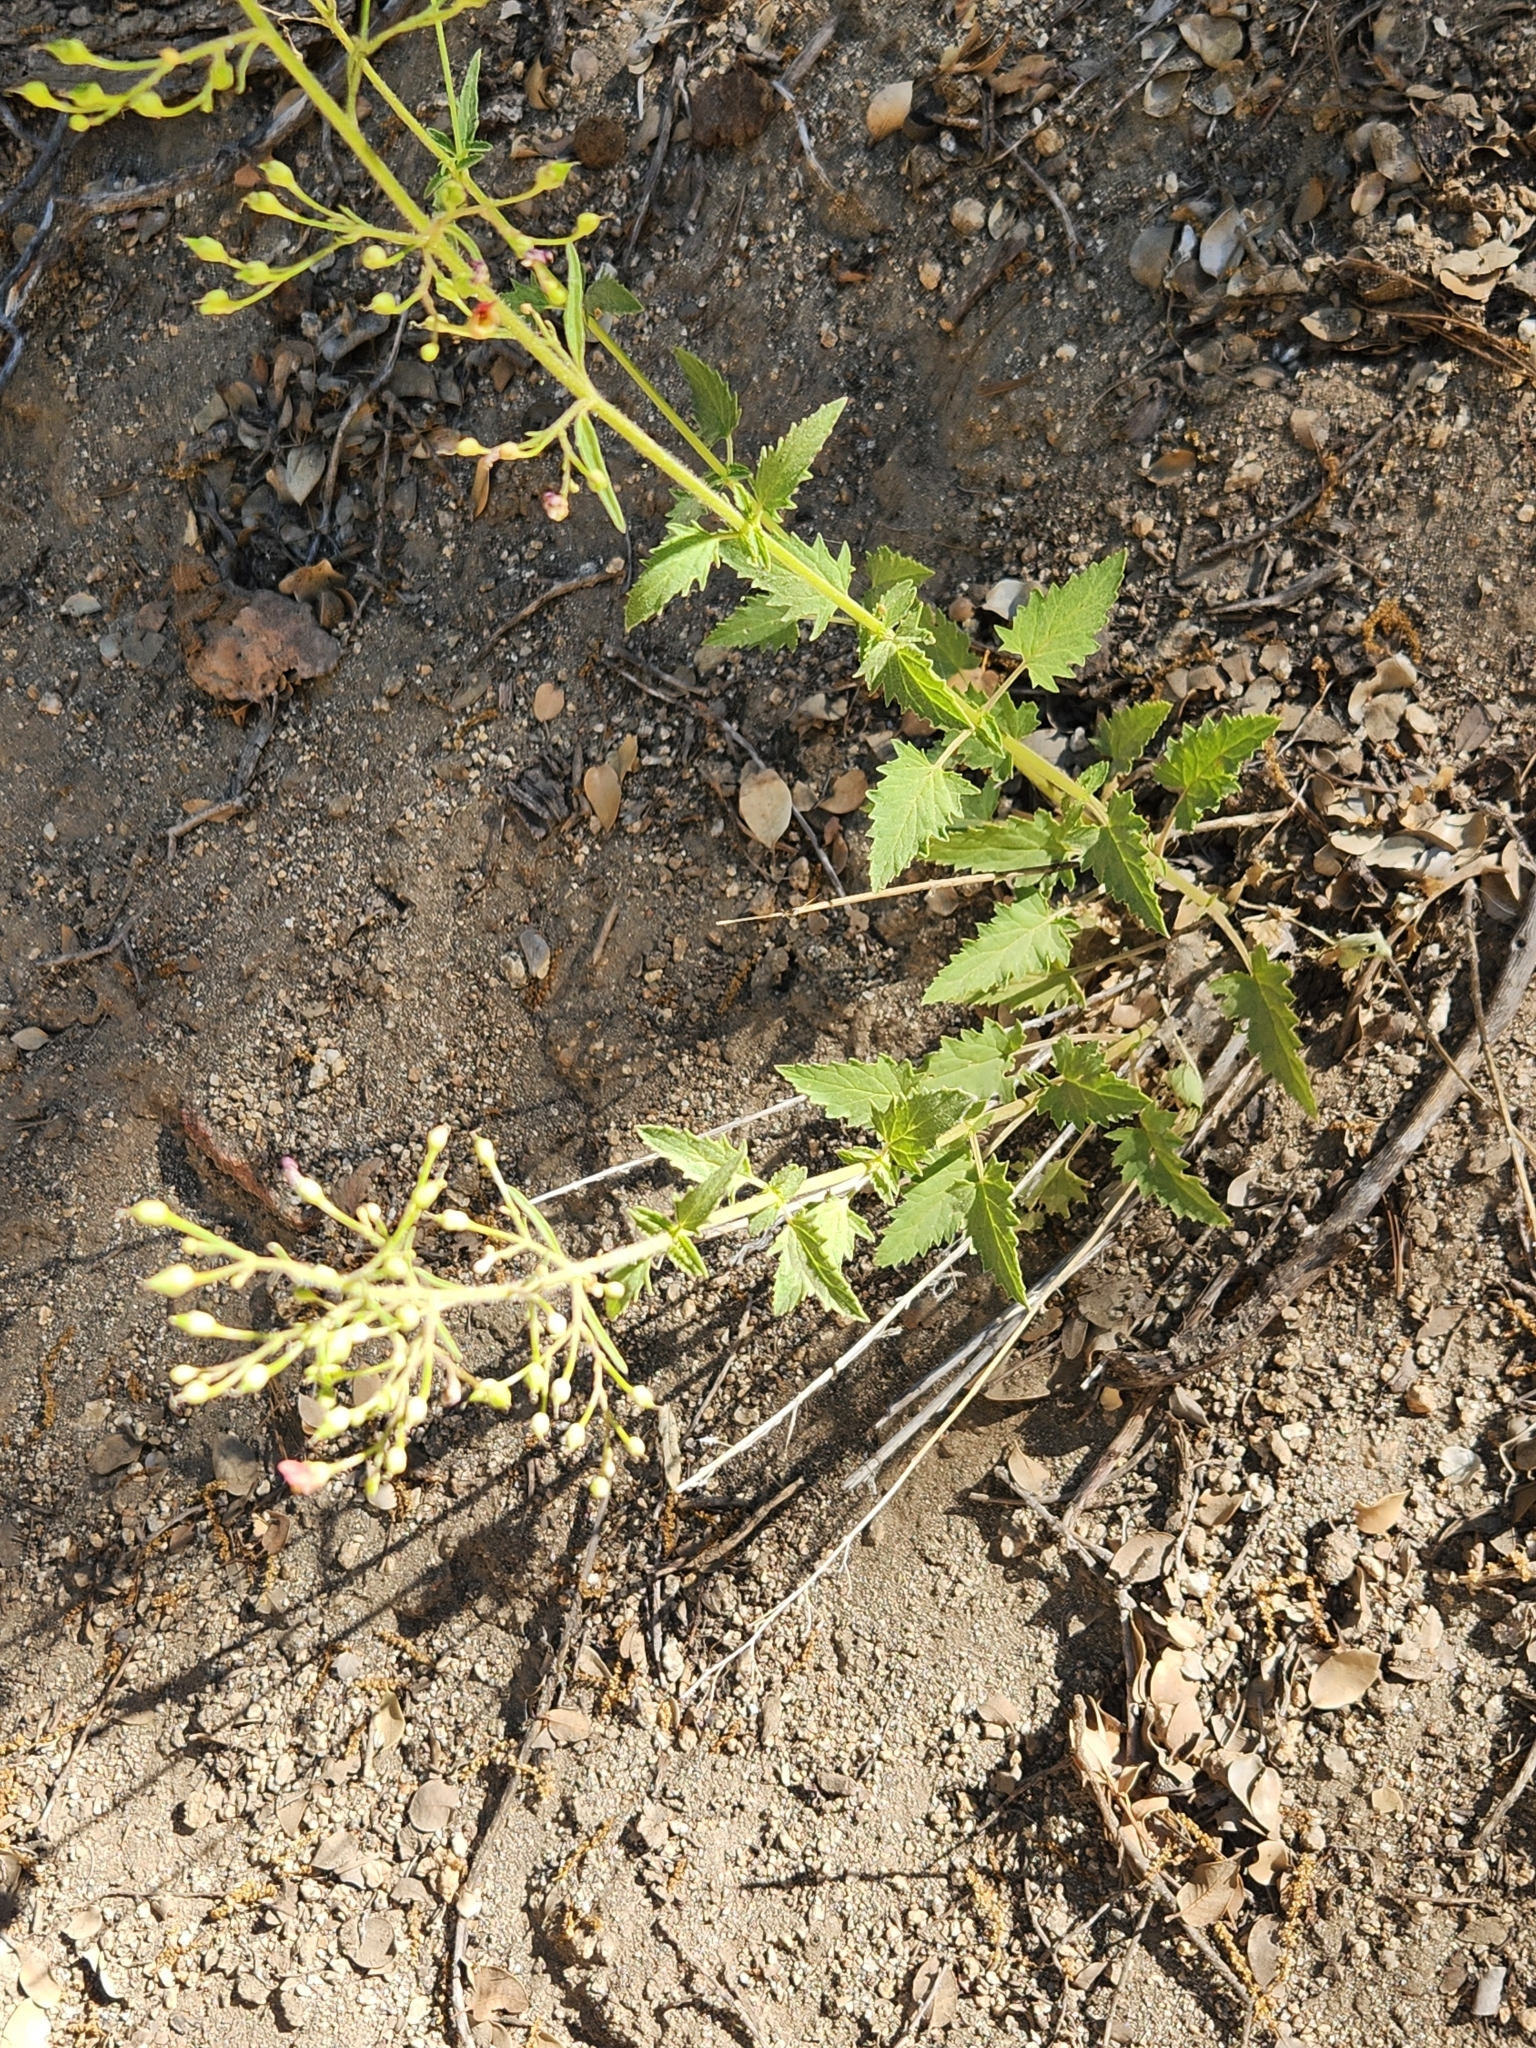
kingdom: Plantae
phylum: Tracheophyta
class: Magnoliopsida
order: Lamiales
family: Scrophulariaceae
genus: Scrophularia
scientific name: Scrophularia californica
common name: California figwort
